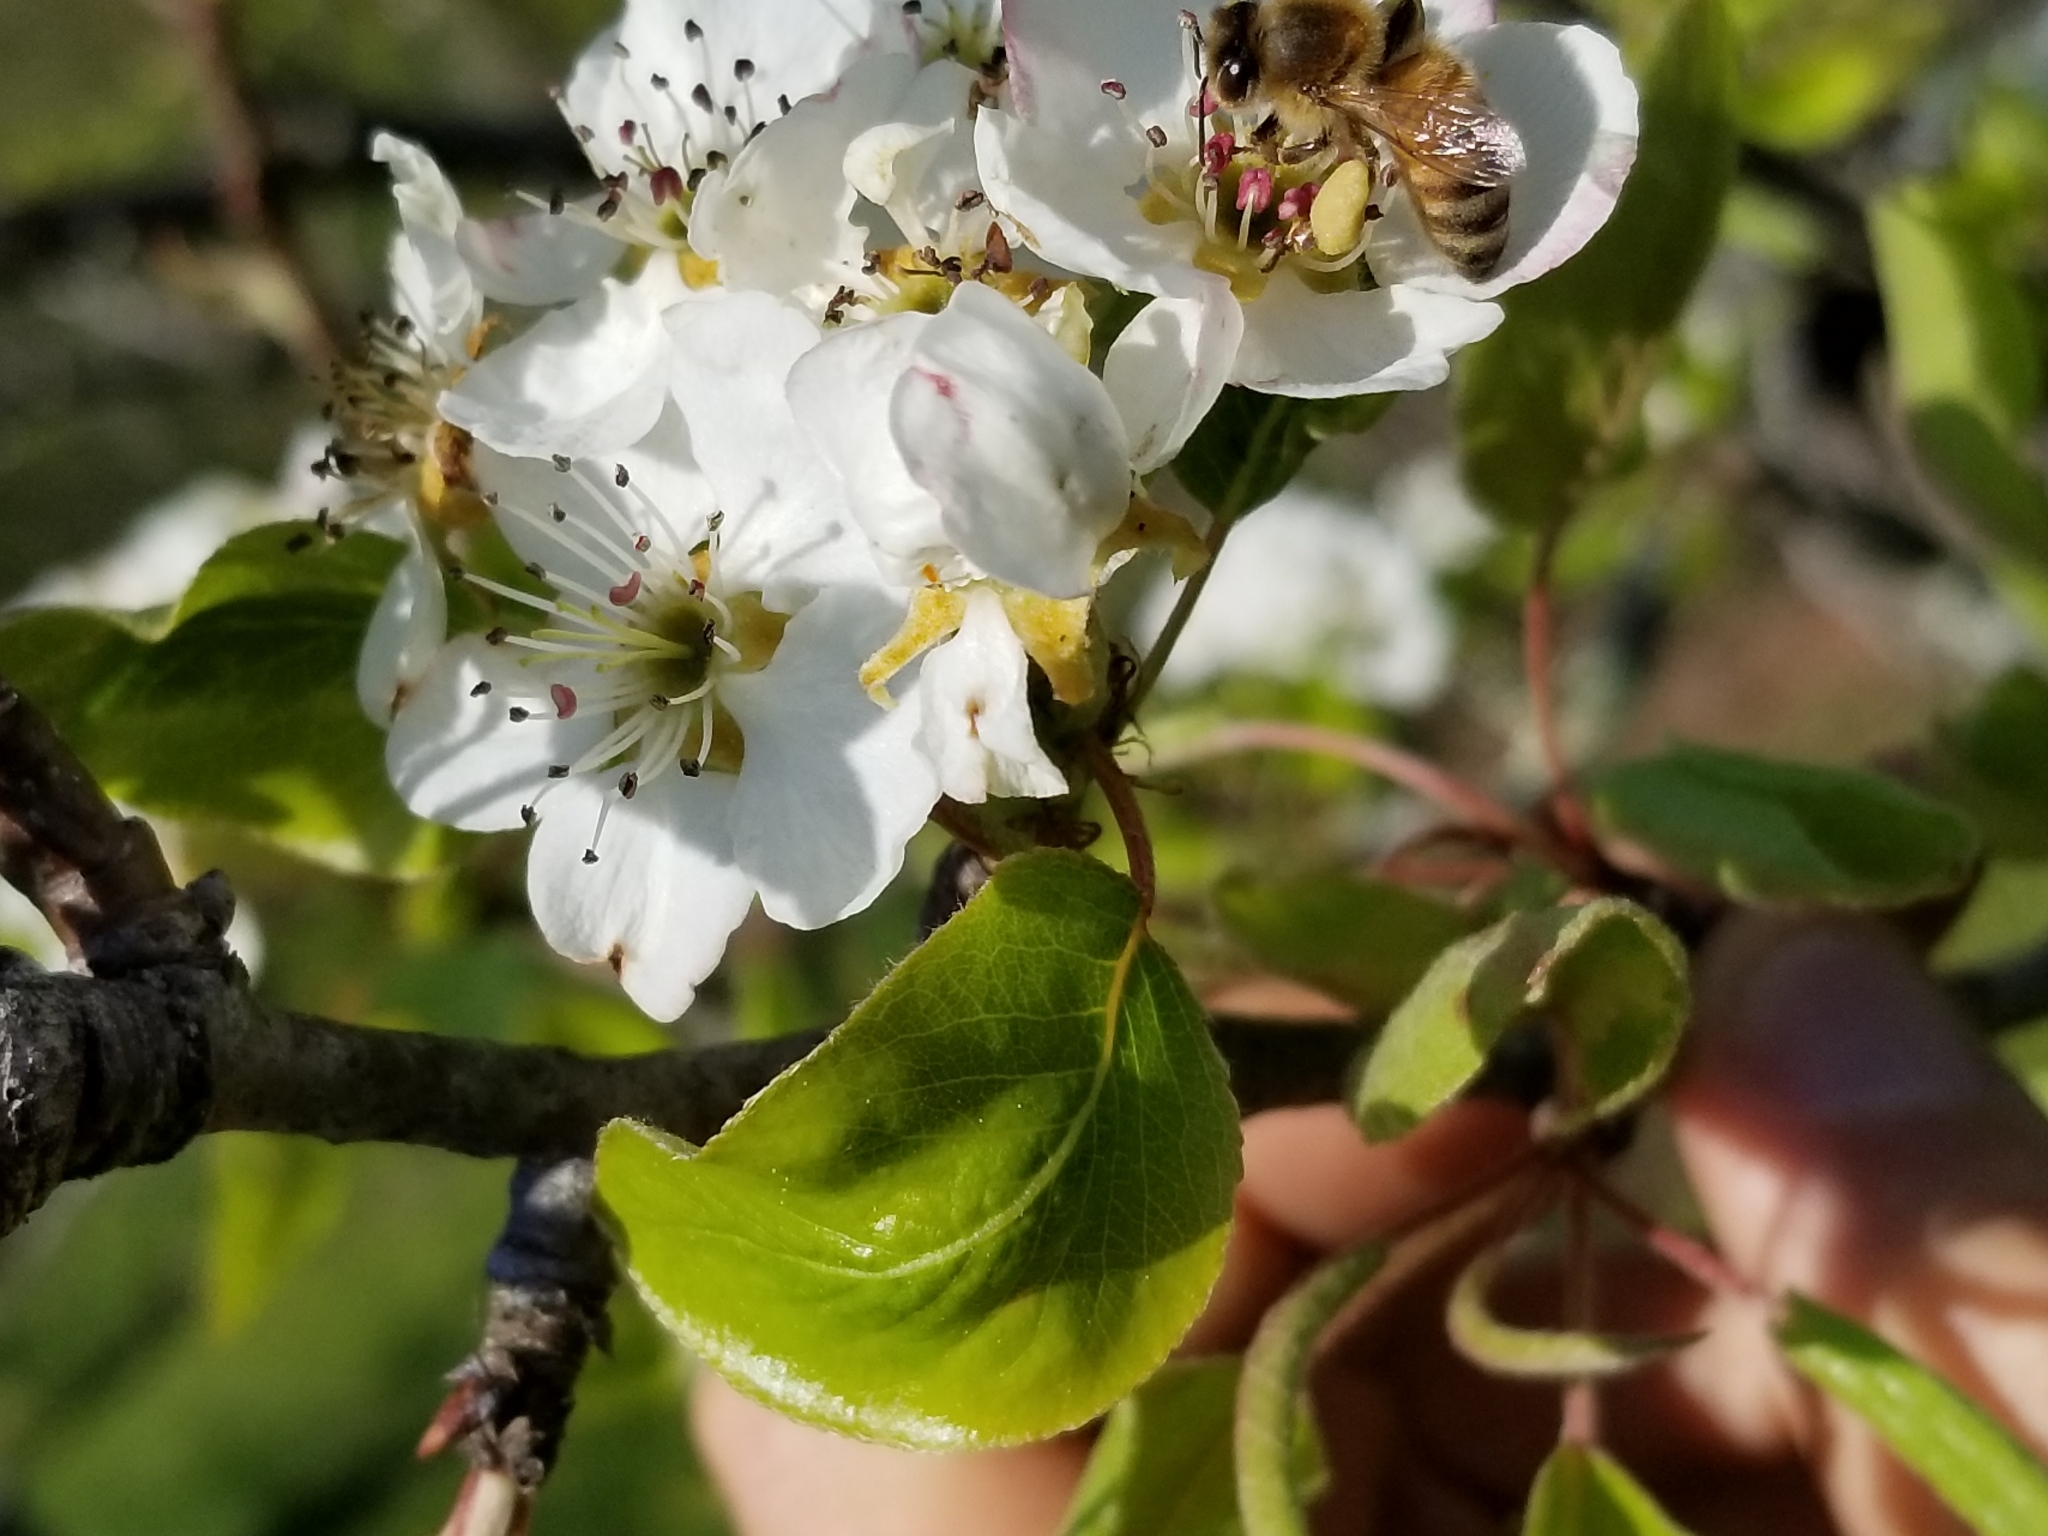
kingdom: Animalia
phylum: Arthropoda
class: Insecta
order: Hymenoptera
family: Apidae
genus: Apis
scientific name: Apis mellifera
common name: Honey bee
